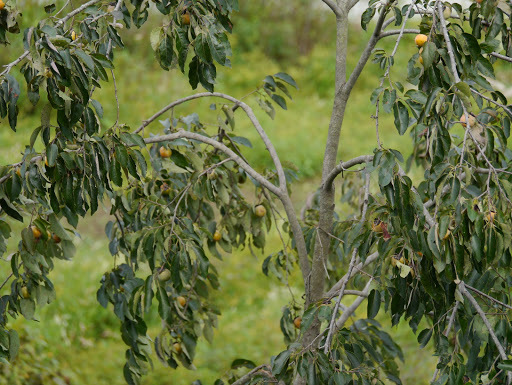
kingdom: Plantae
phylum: Tracheophyta
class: Magnoliopsida
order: Ericales
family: Ebenaceae
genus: Diospyros
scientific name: Diospyros virginiana
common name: Persimmon
